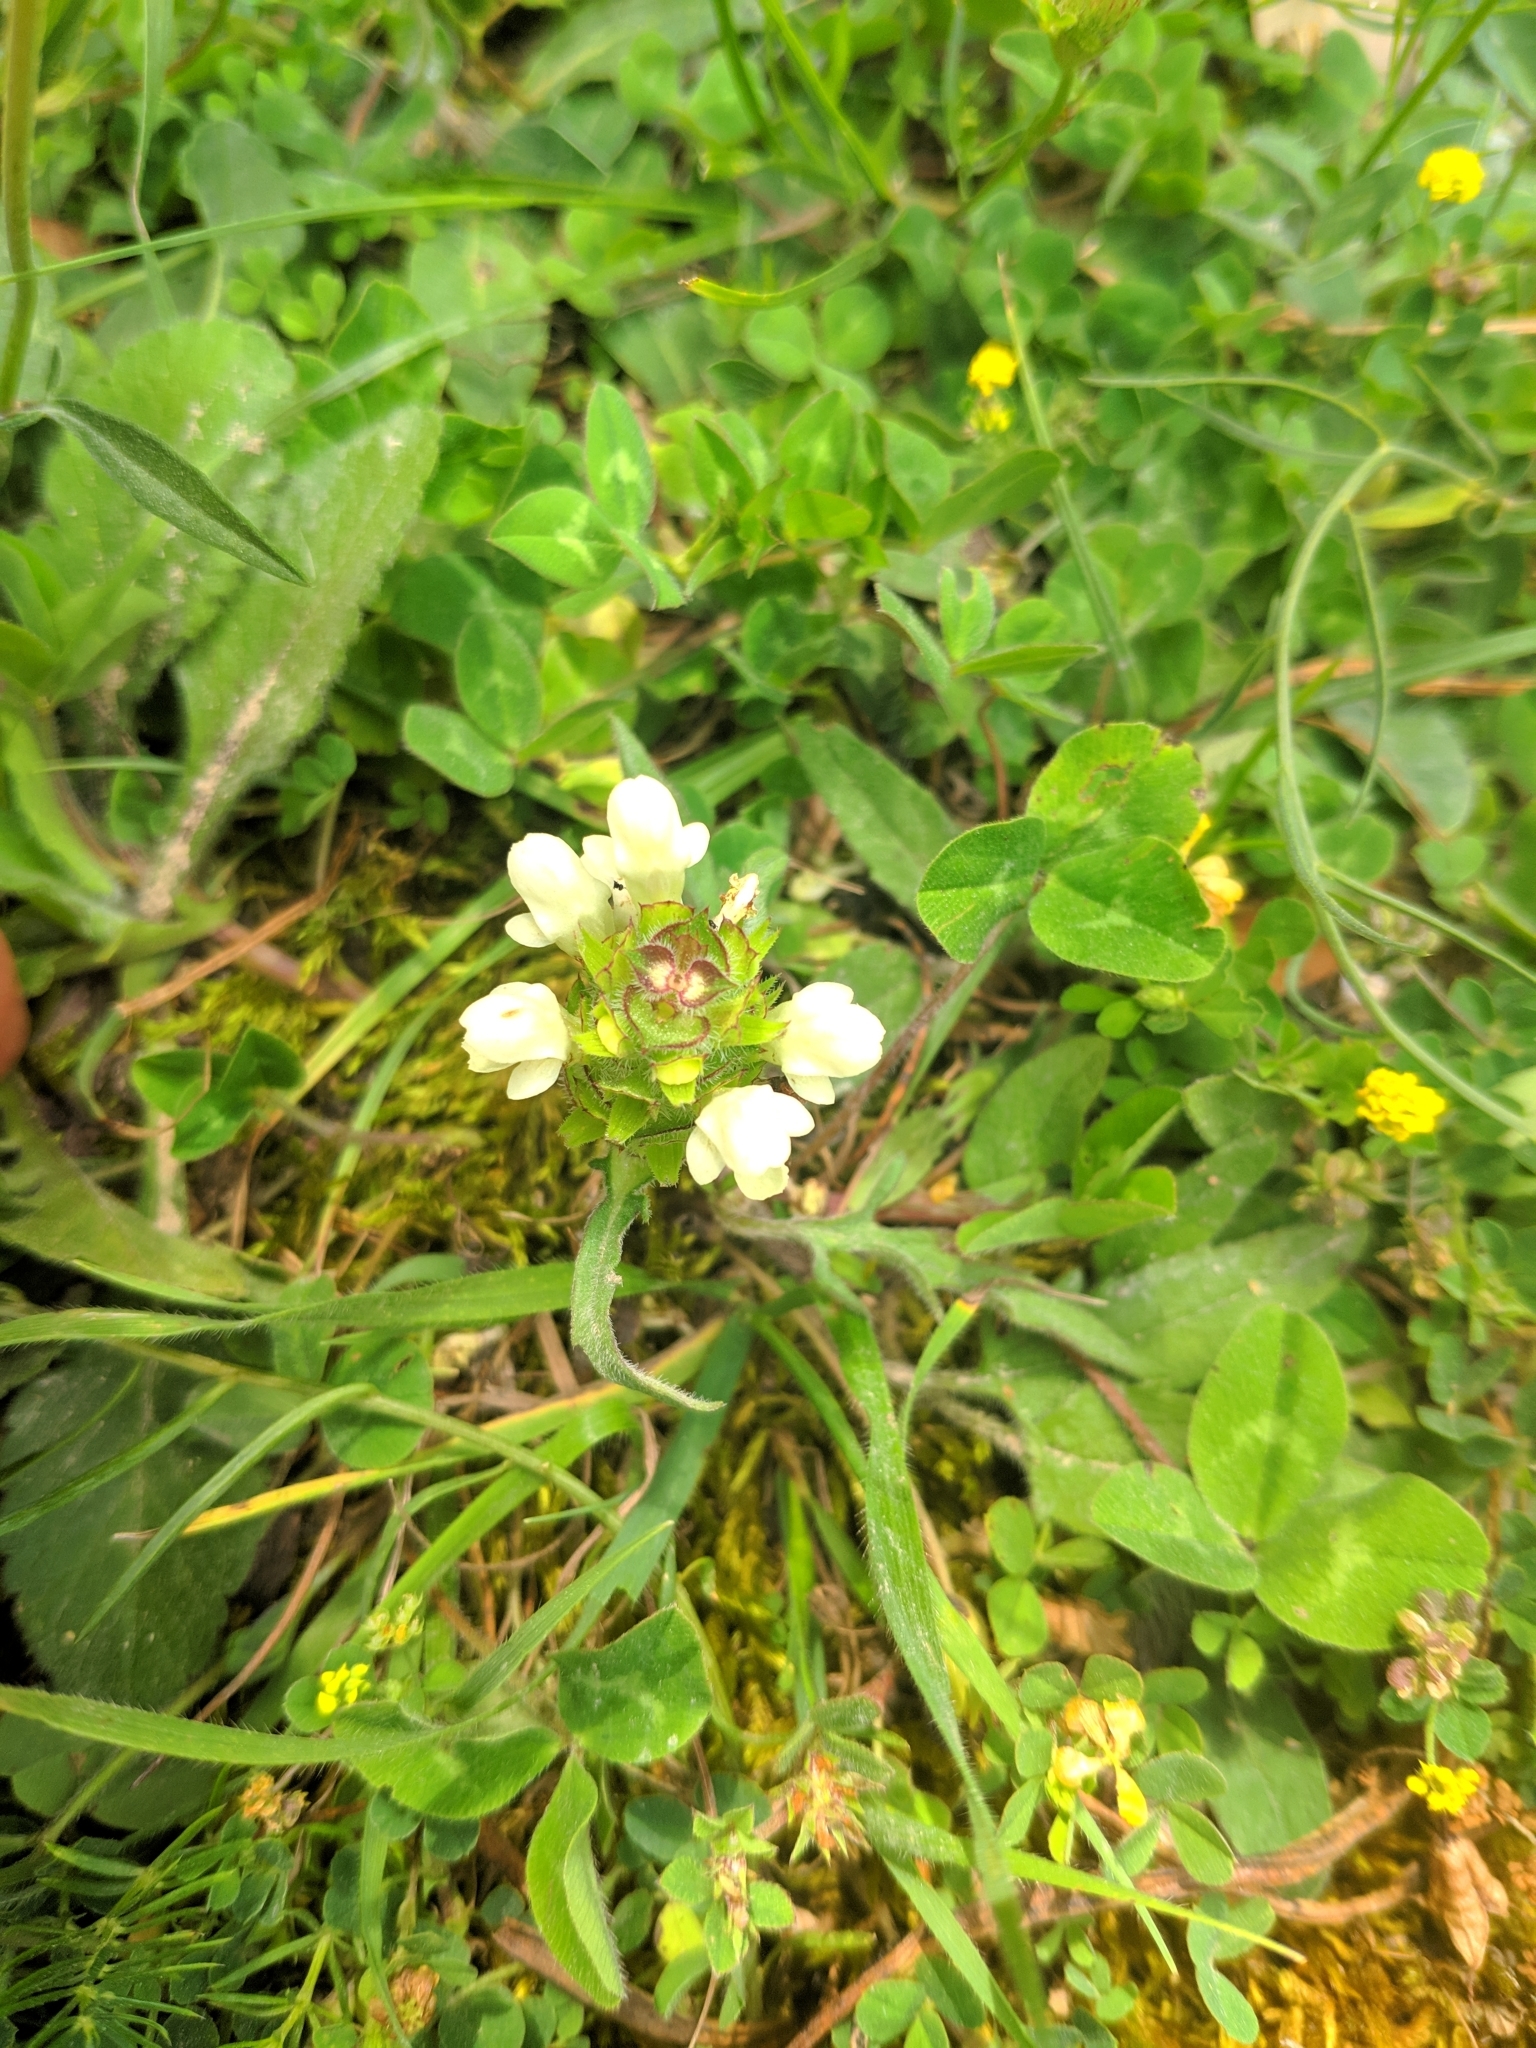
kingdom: Plantae
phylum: Tracheophyta
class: Magnoliopsida
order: Lamiales
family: Lamiaceae
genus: Prunella
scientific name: Prunella laciniata
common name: Cut-leaved selfheal
